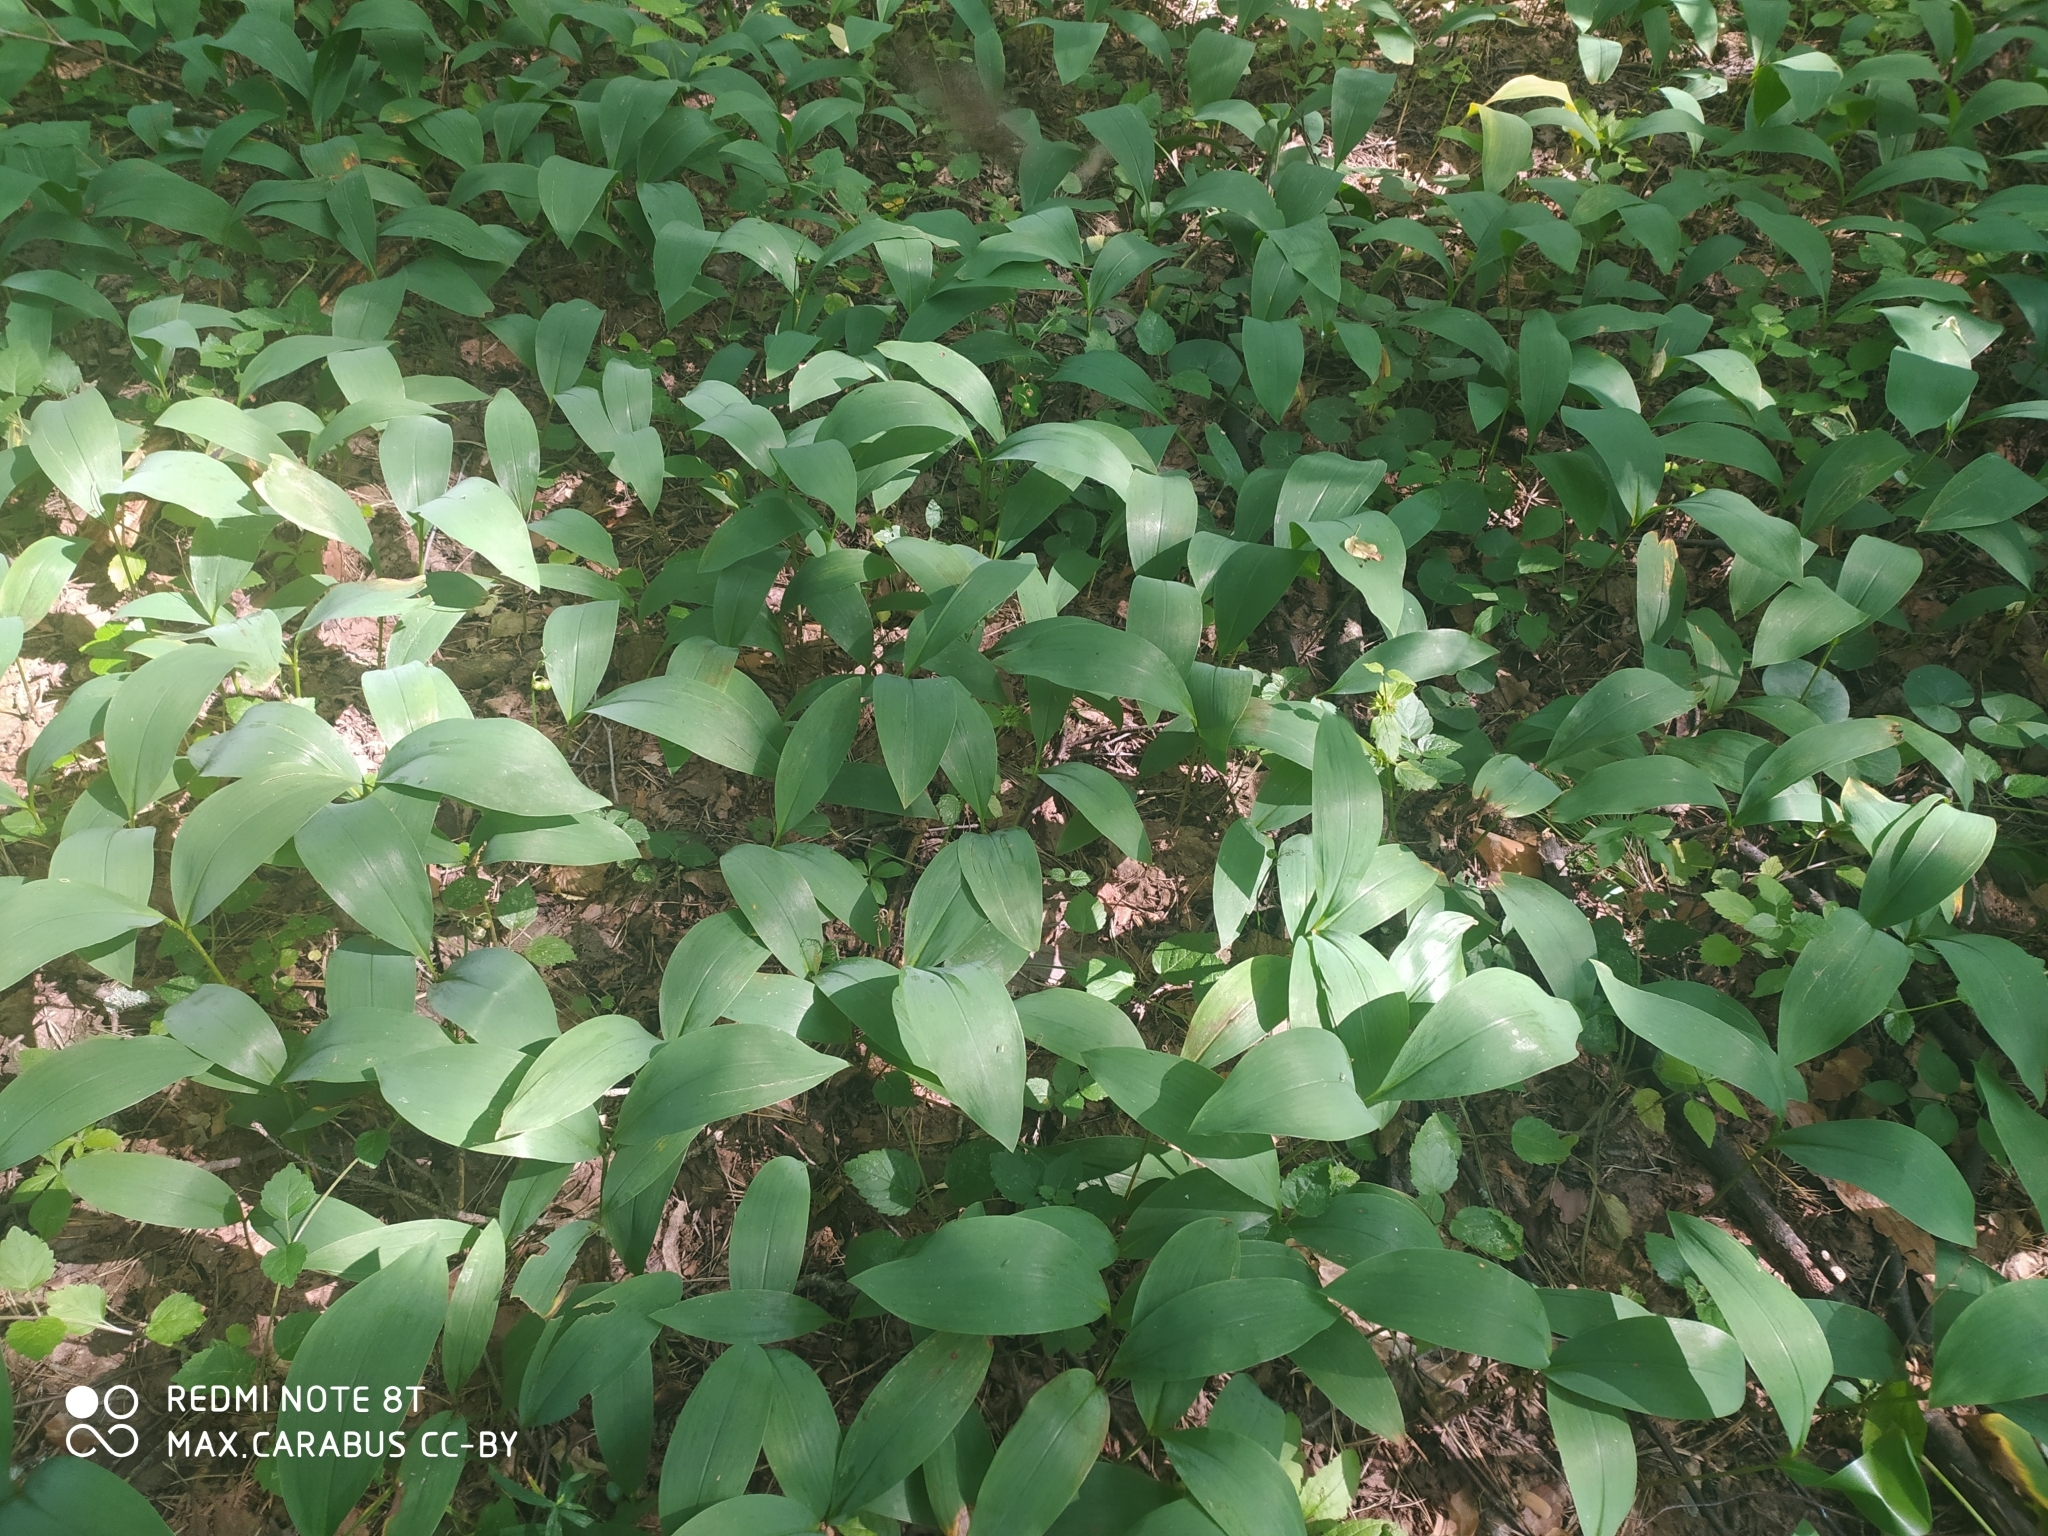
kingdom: Plantae
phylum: Tracheophyta
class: Liliopsida
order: Asparagales
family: Asparagaceae
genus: Convallaria
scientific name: Convallaria majalis
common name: Lily-of-the-valley
